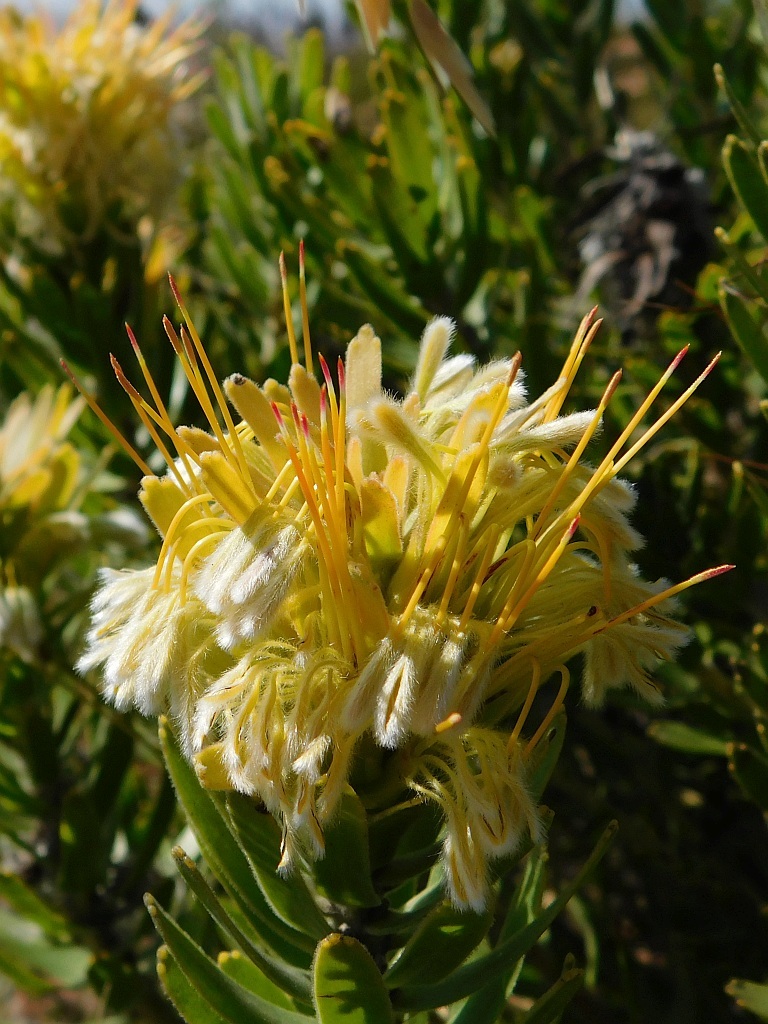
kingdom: Plantae
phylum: Tracheophyta
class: Magnoliopsida
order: Proteales
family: Proteaceae
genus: Mimetes
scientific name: Mimetes cucullatus
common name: Common pagoda
